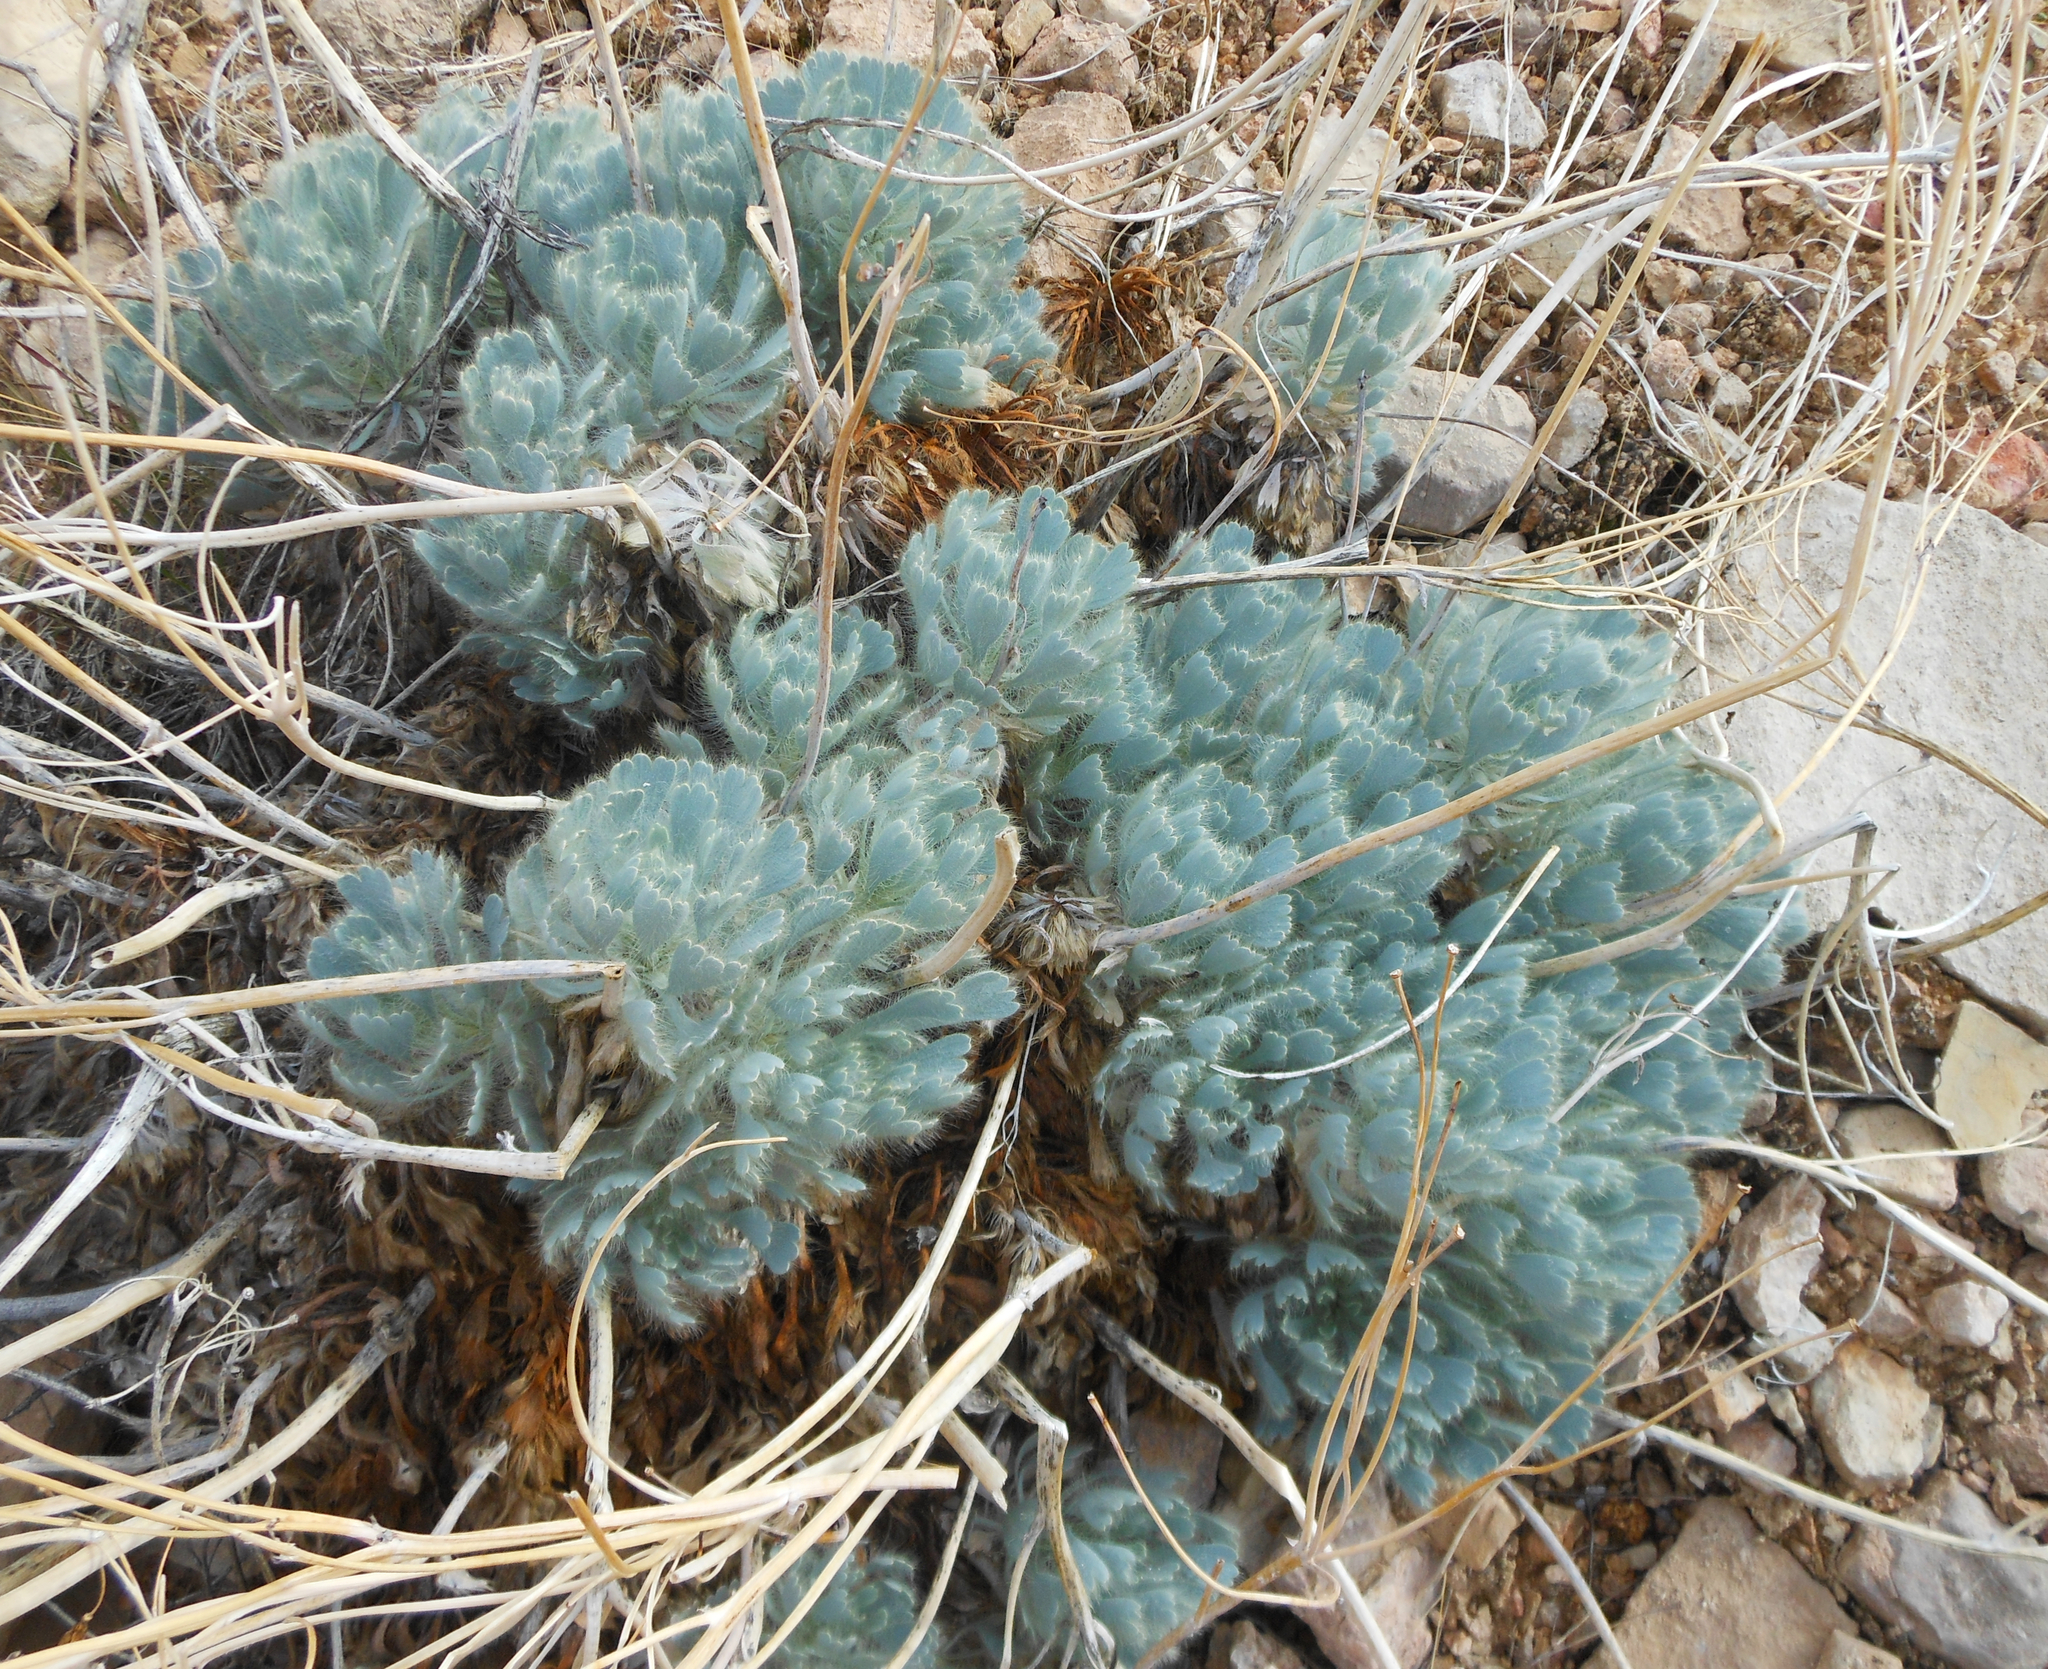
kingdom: Plantae
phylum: Tracheophyta
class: Magnoliopsida
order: Ranunculales
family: Papaveraceae
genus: Arctomecon
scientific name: Arctomecon californicum
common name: Golden bearclaw-poppy
